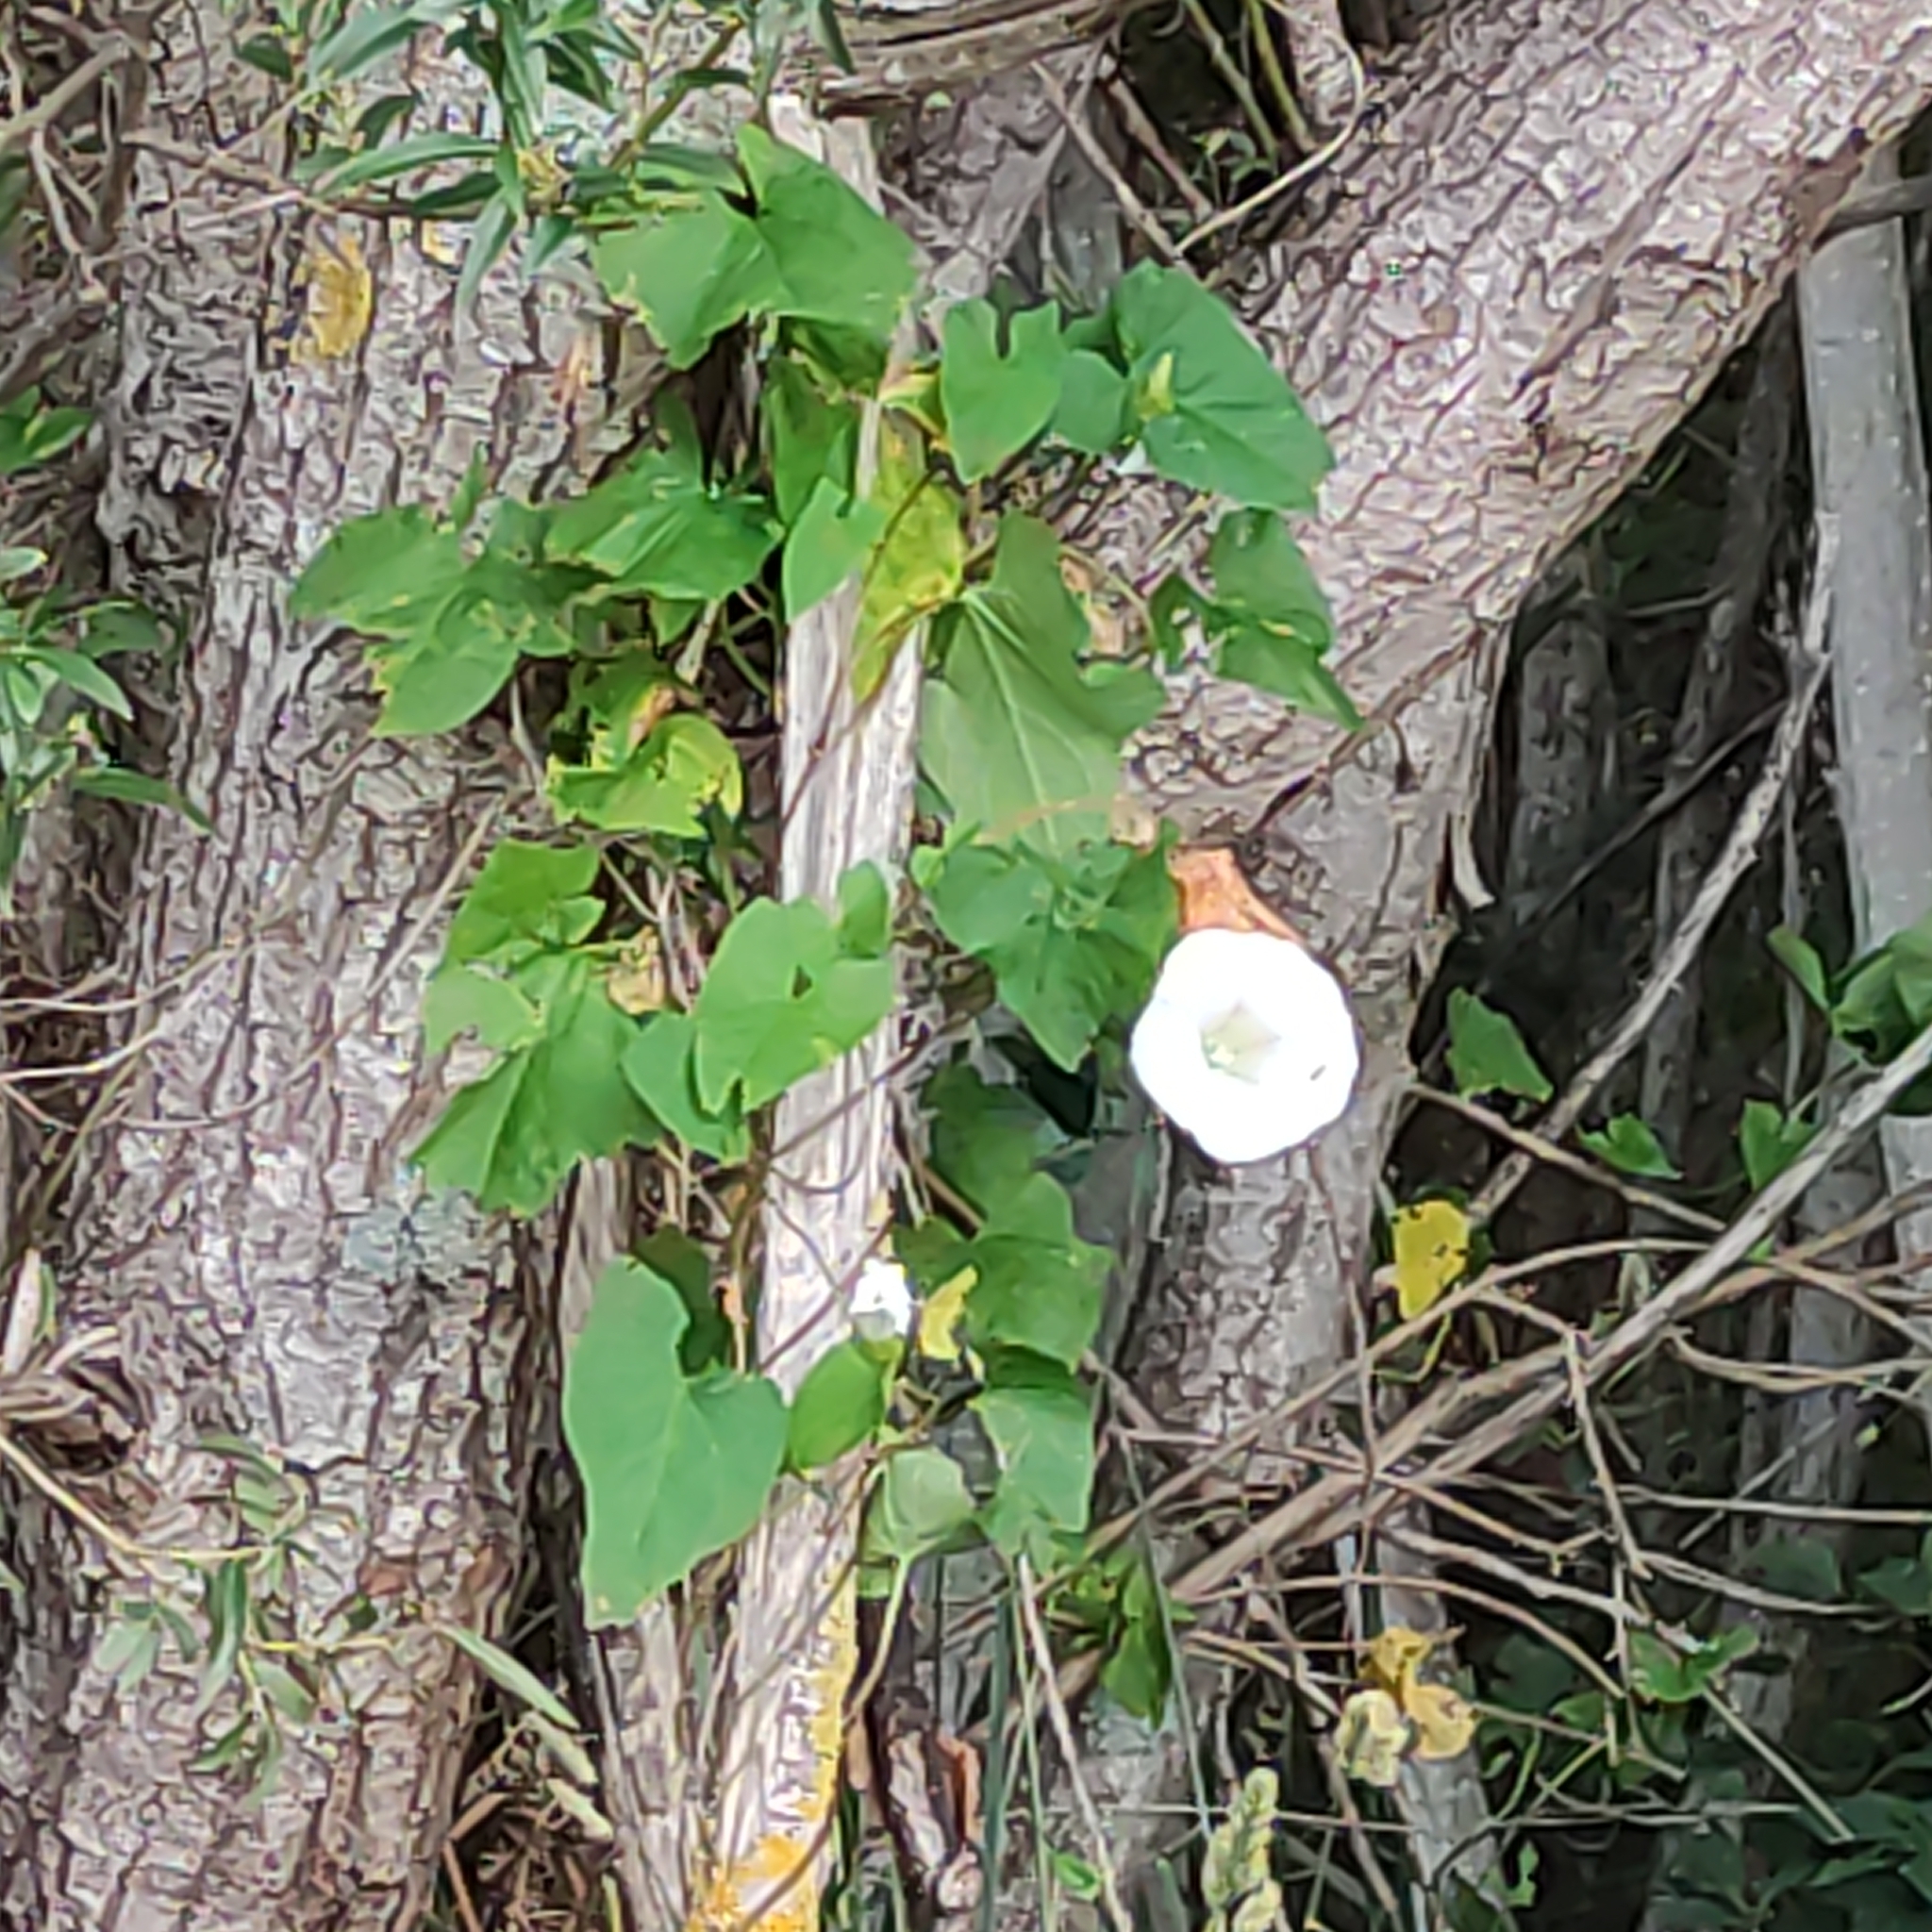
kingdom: Plantae
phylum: Tracheophyta
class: Magnoliopsida
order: Solanales
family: Convolvulaceae
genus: Calystegia
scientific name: Calystegia silvatica
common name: Large bindweed
